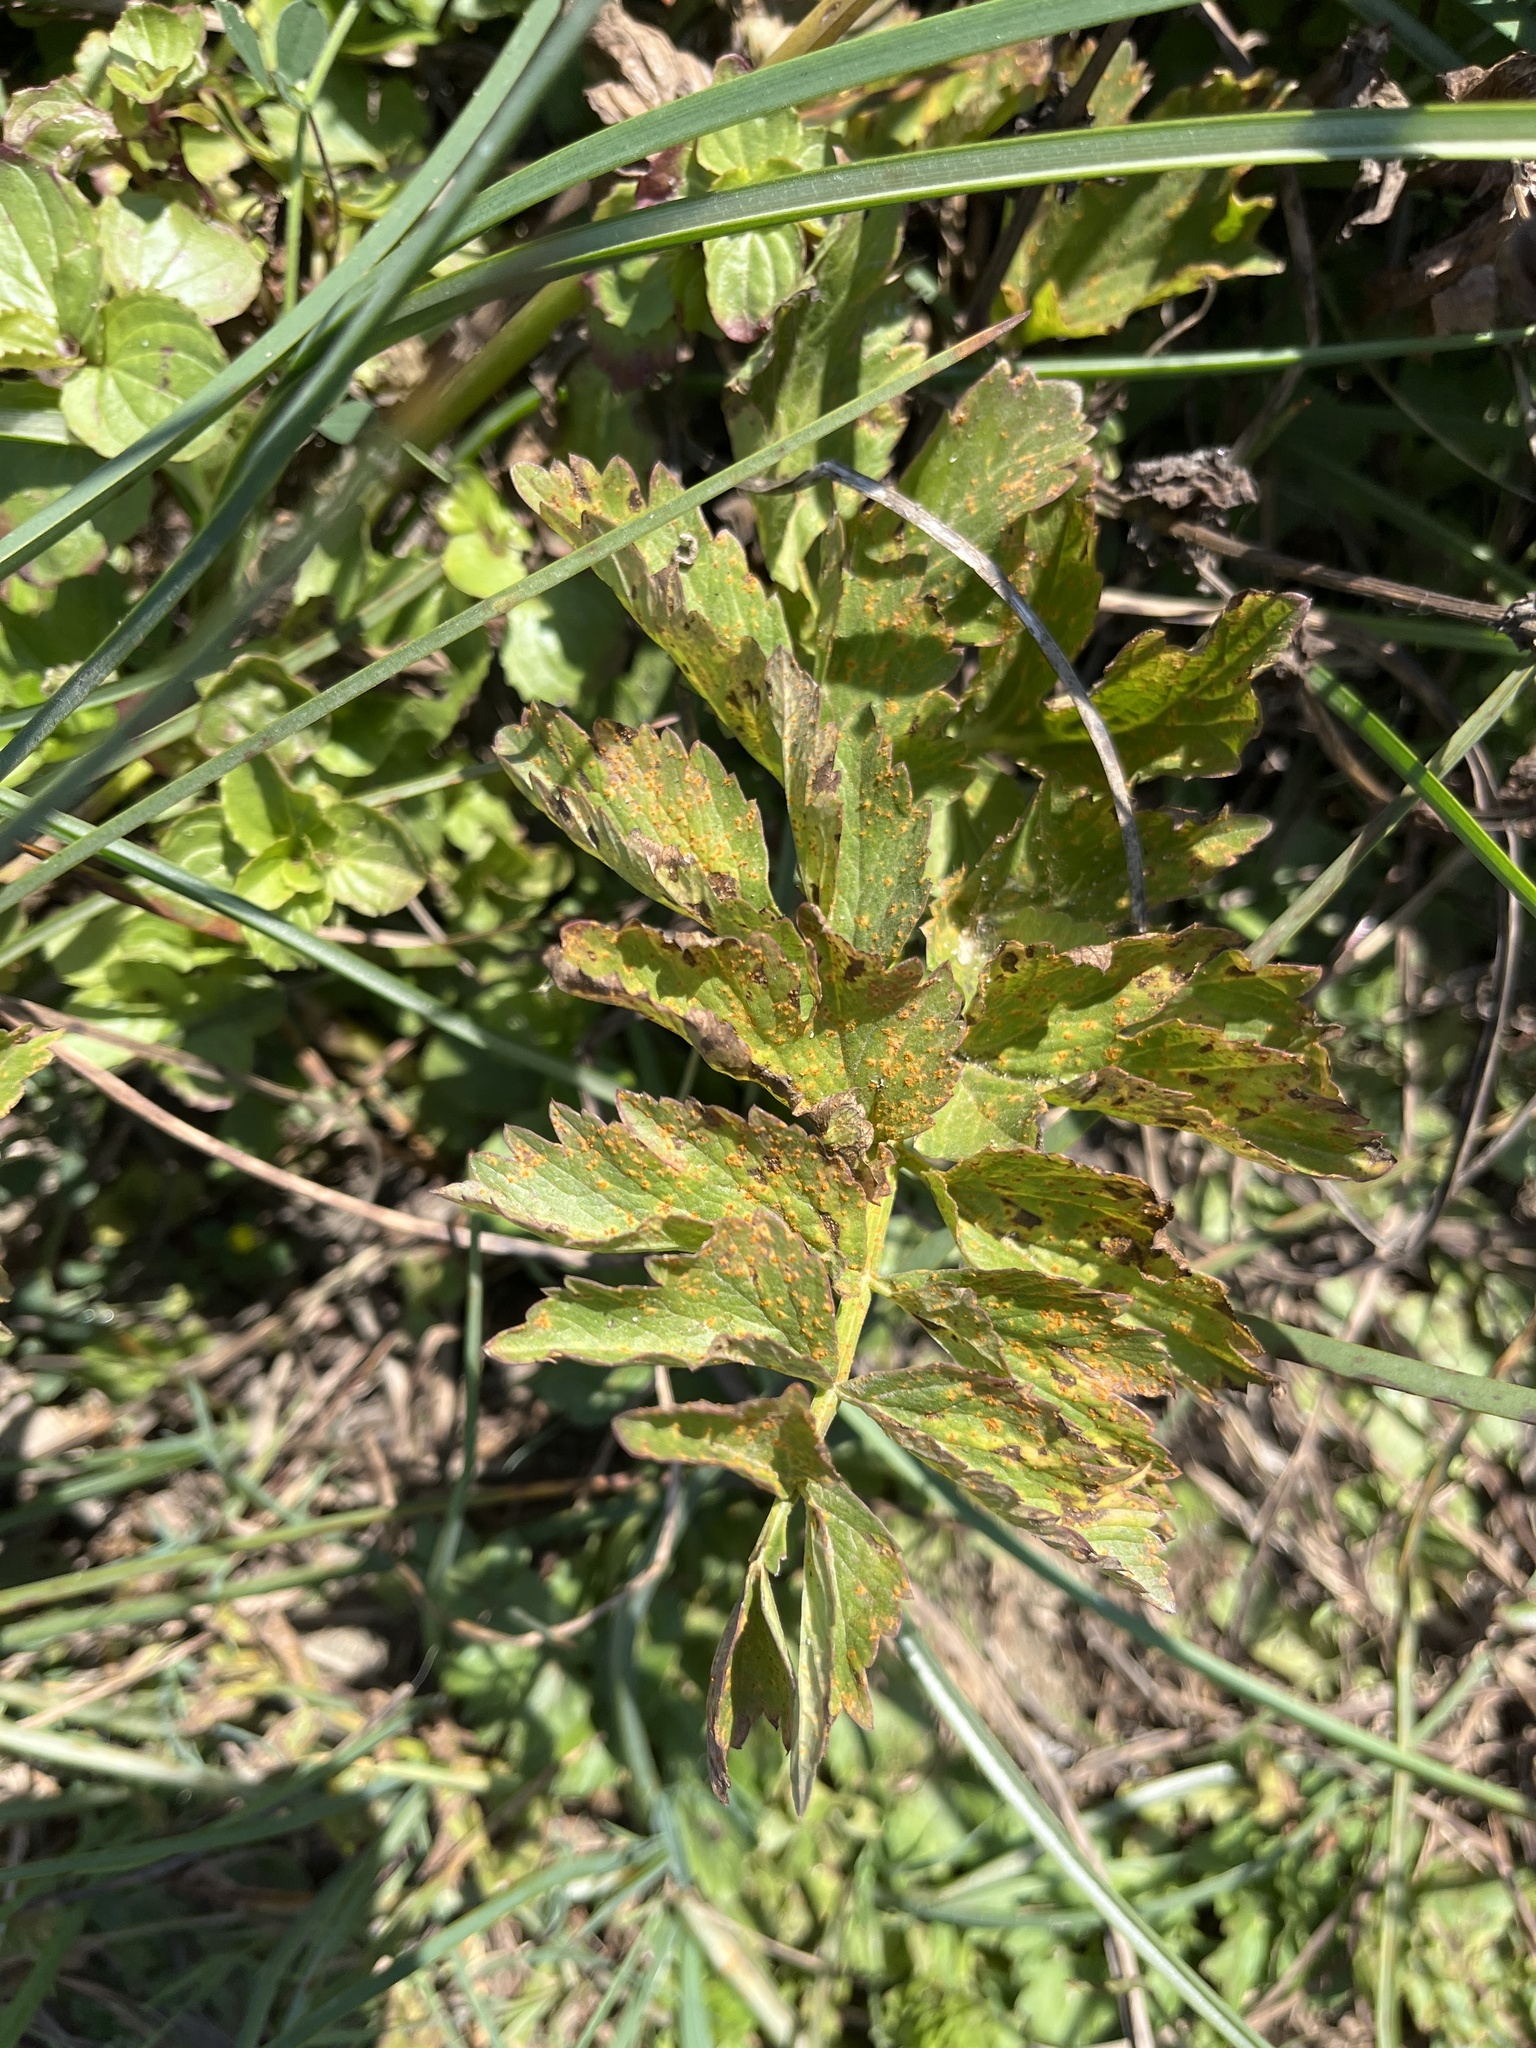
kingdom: Plantae
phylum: Tracheophyta
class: Magnoliopsida
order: Apiales
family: Apiaceae
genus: Oenanthe
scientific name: Oenanthe sarmentosa
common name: American water-parsley
